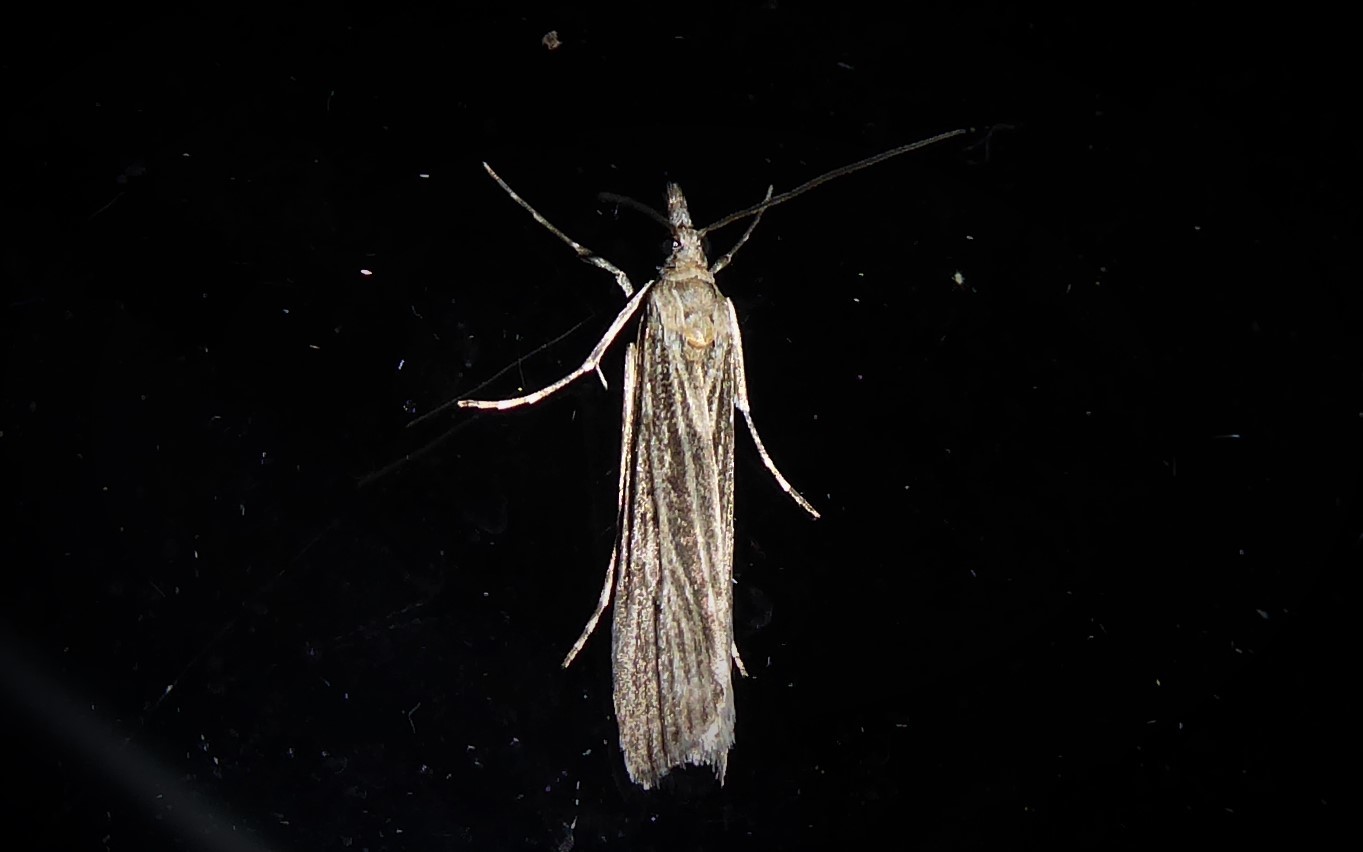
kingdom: Animalia
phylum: Arthropoda
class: Insecta
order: Lepidoptera
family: Crambidae
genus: Eudonia
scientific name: Eudonia atmogramma
